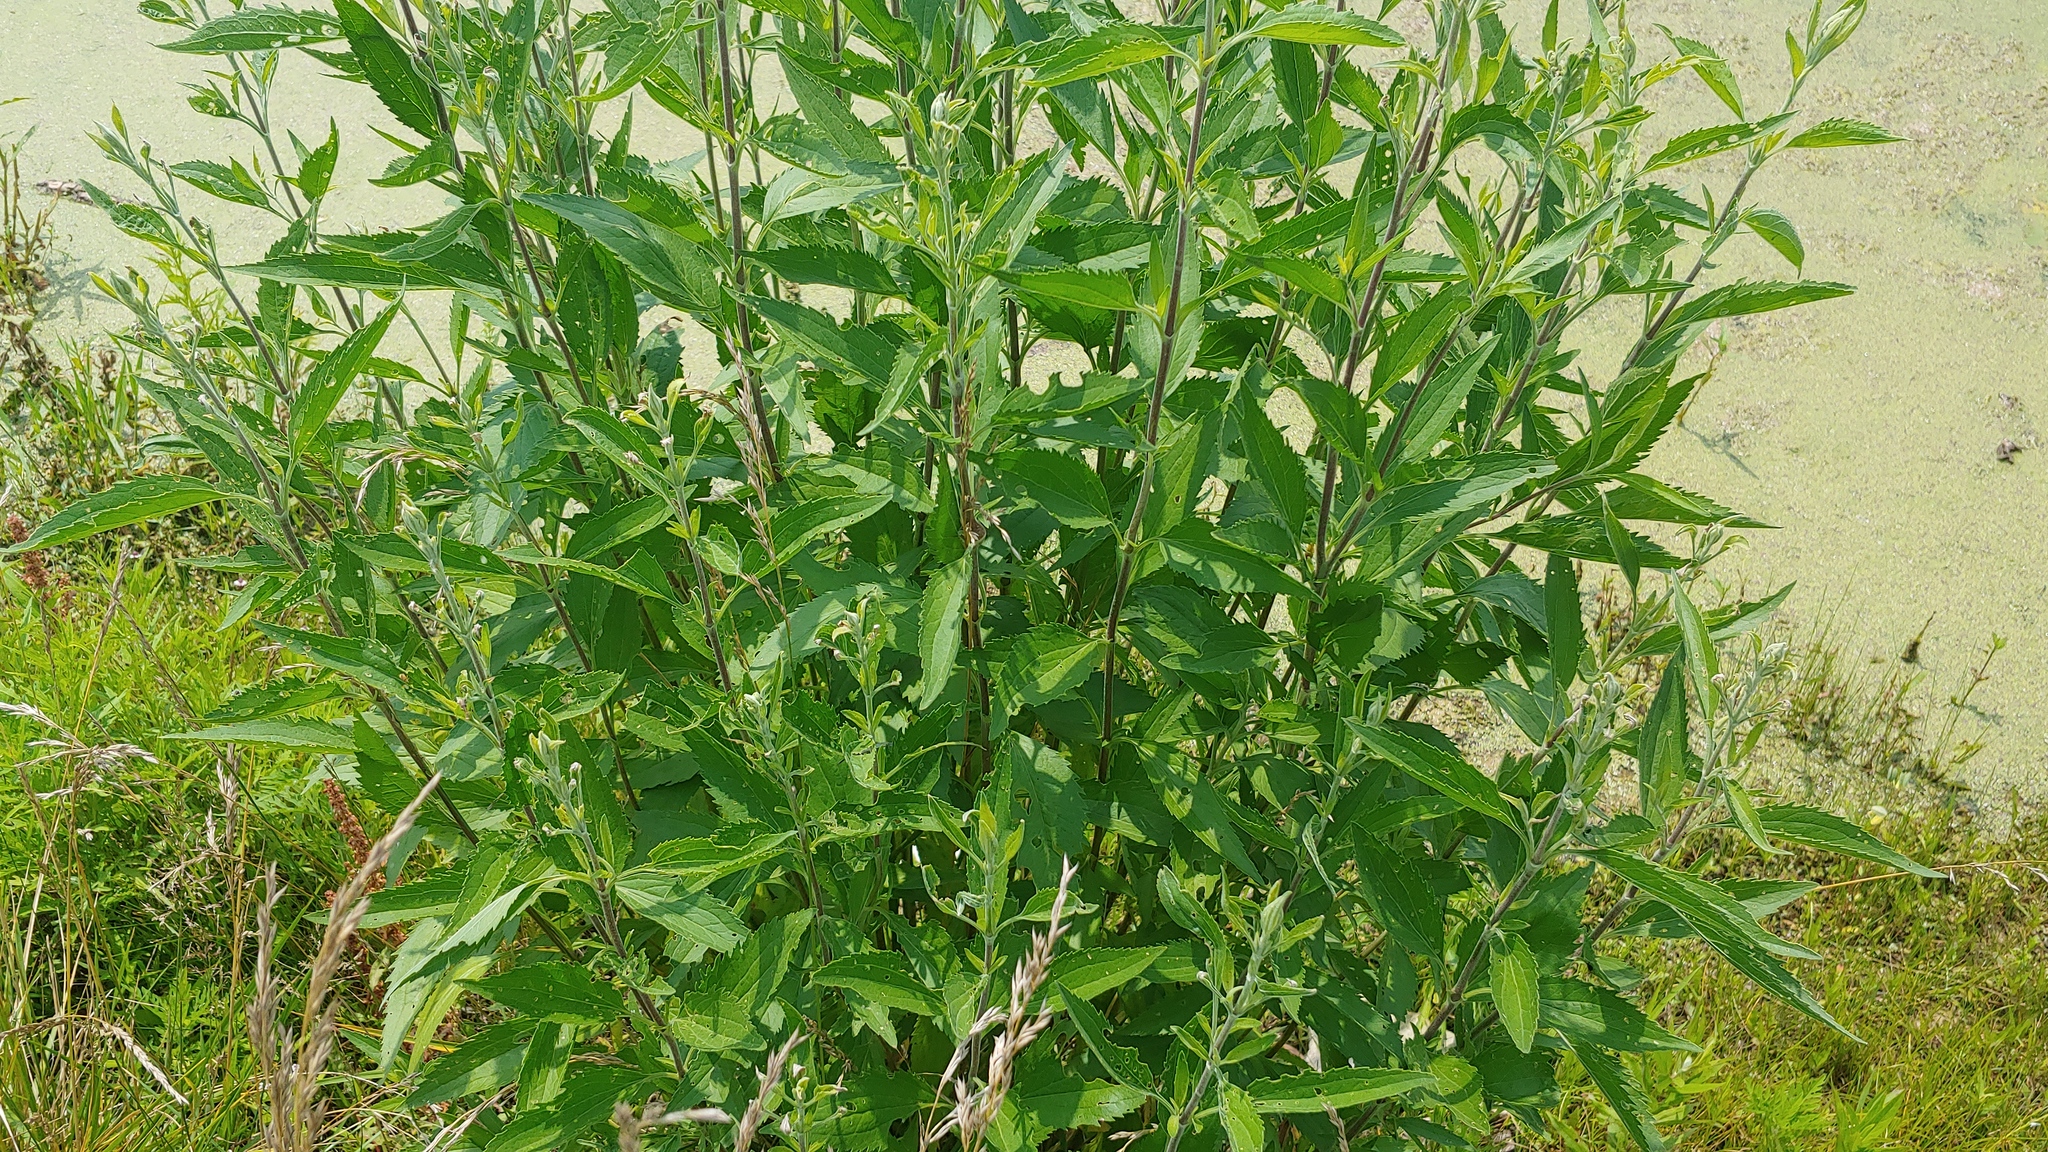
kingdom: Plantae
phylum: Tracheophyta
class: Magnoliopsida
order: Asterales
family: Asteraceae
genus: Eupatorium
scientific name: Eupatorium serotinum
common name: Late boneset
